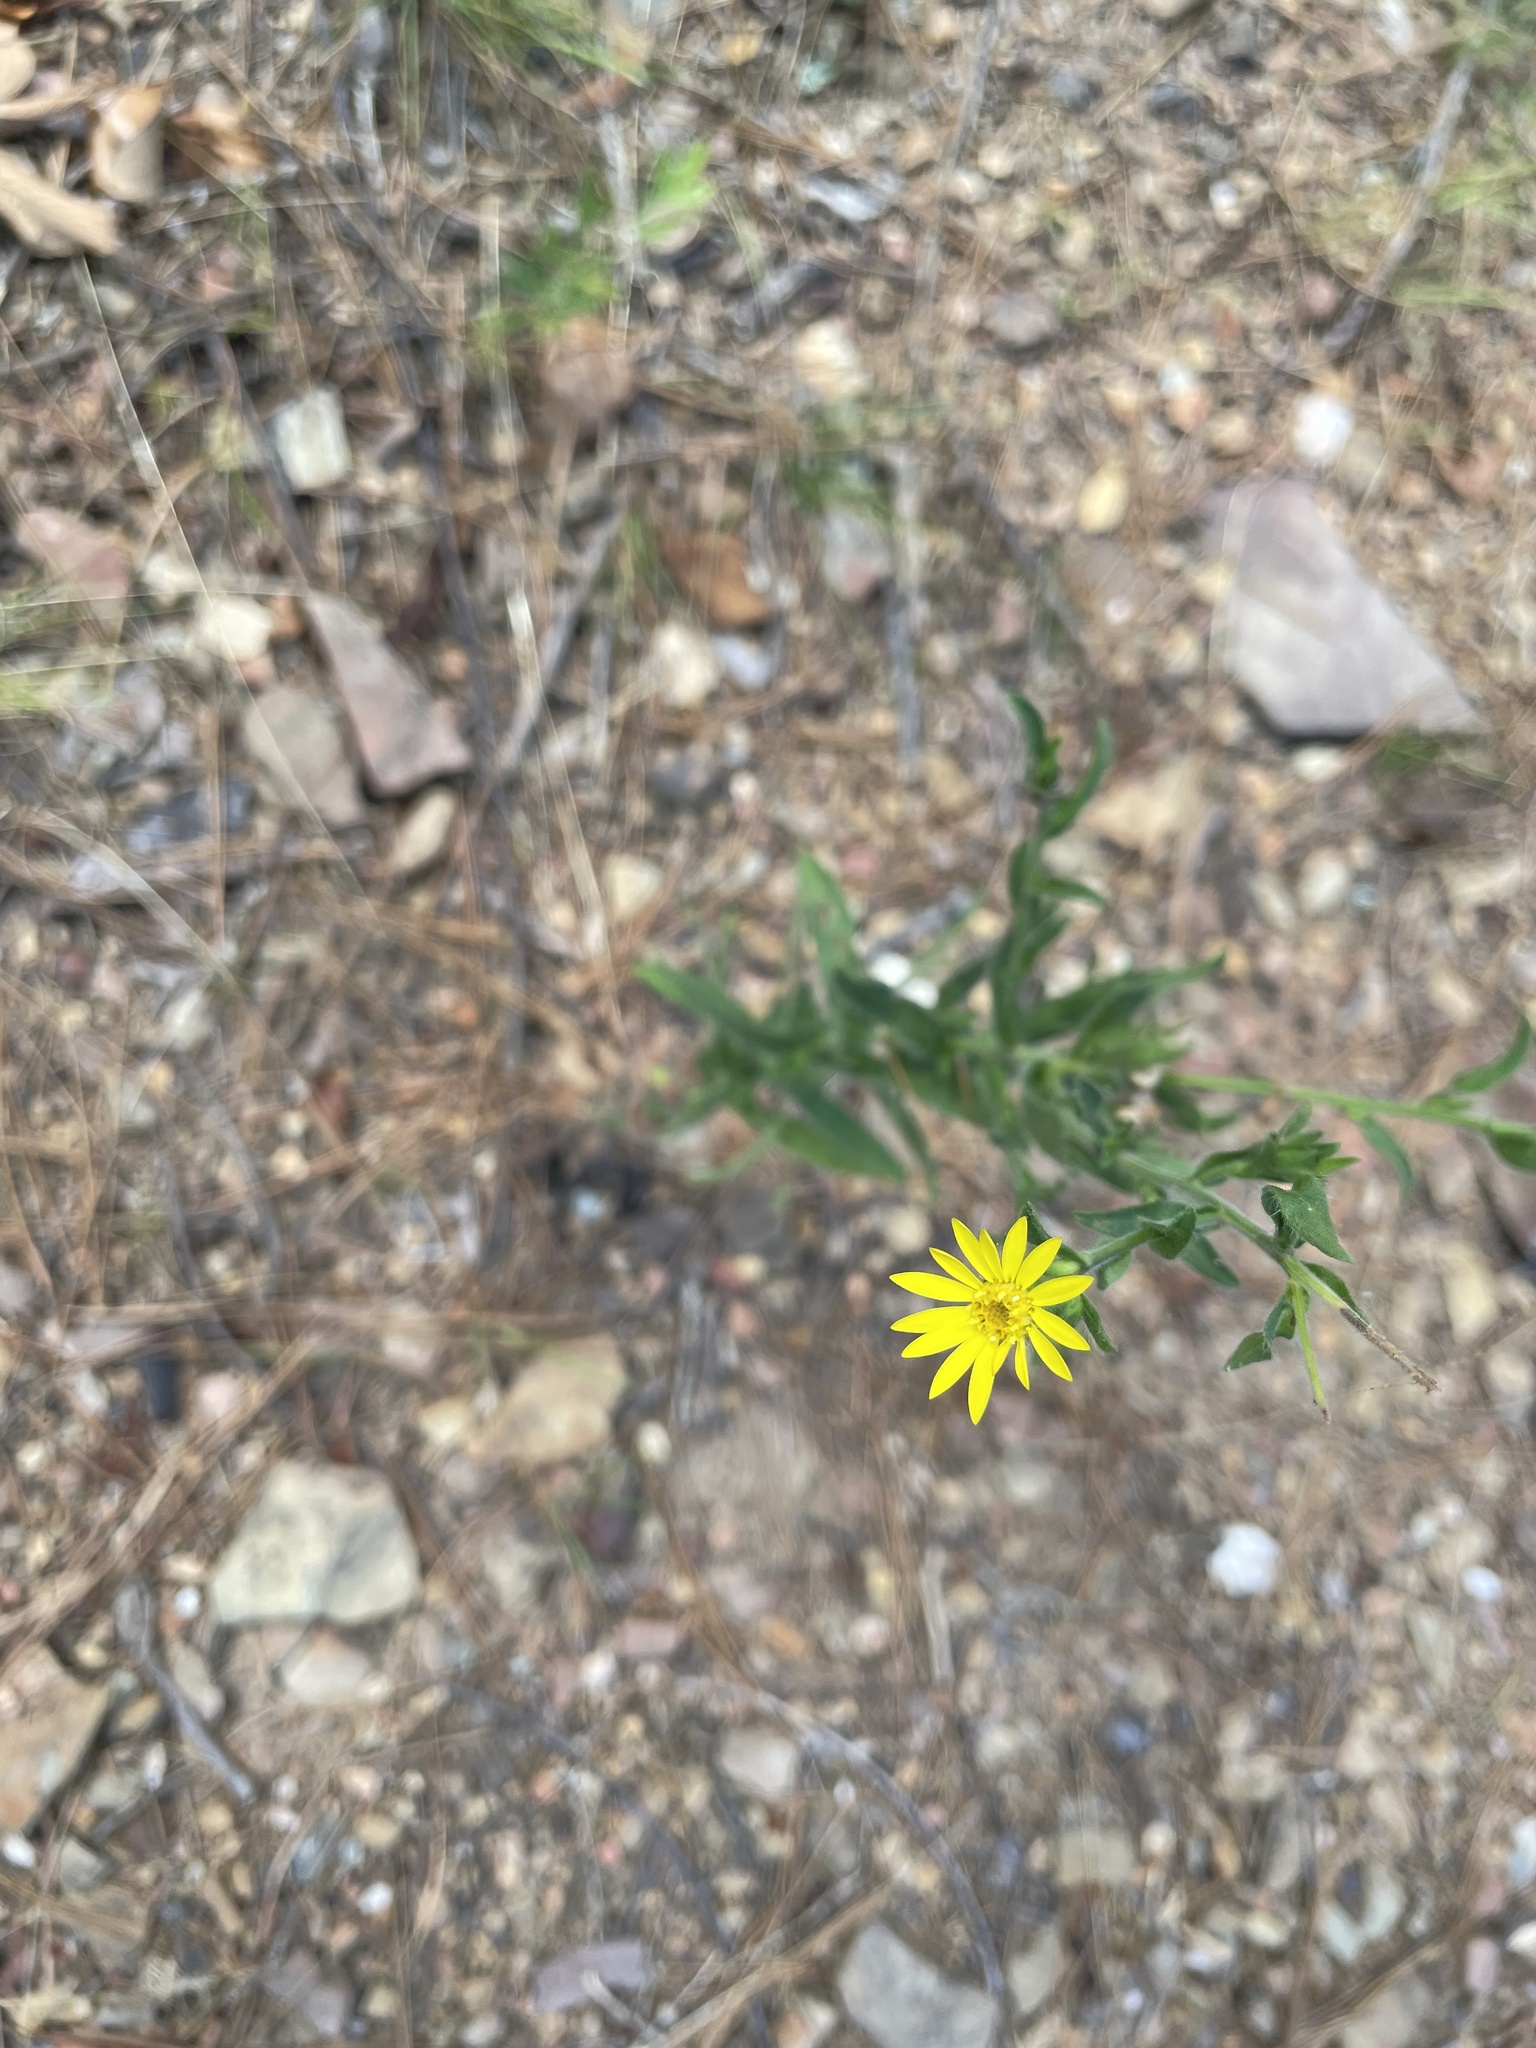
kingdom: Plantae
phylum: Tracheophyta
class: Magnoliopsida
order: Asterales
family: Asteraceae
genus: Bradburia
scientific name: Bradburia pilosa
